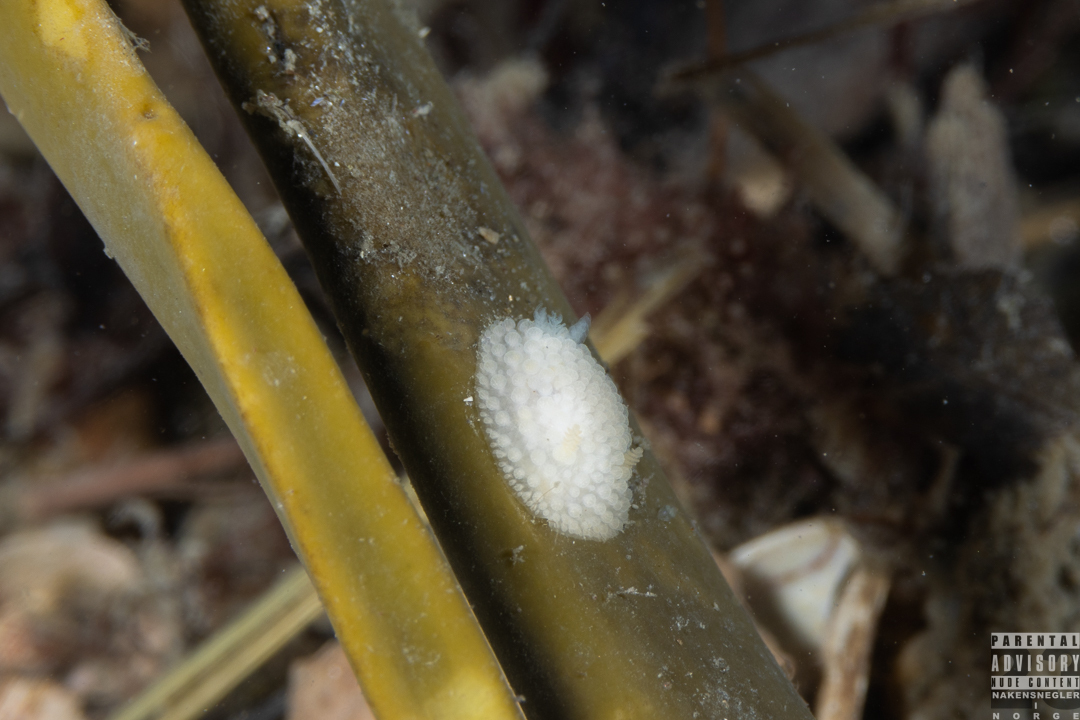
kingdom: Animalia
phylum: Mollusca
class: Gastropoda
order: Nudibranchia
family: Onchidorididae
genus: Onchidoris
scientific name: Onchidoris muricata
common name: Rough doris
